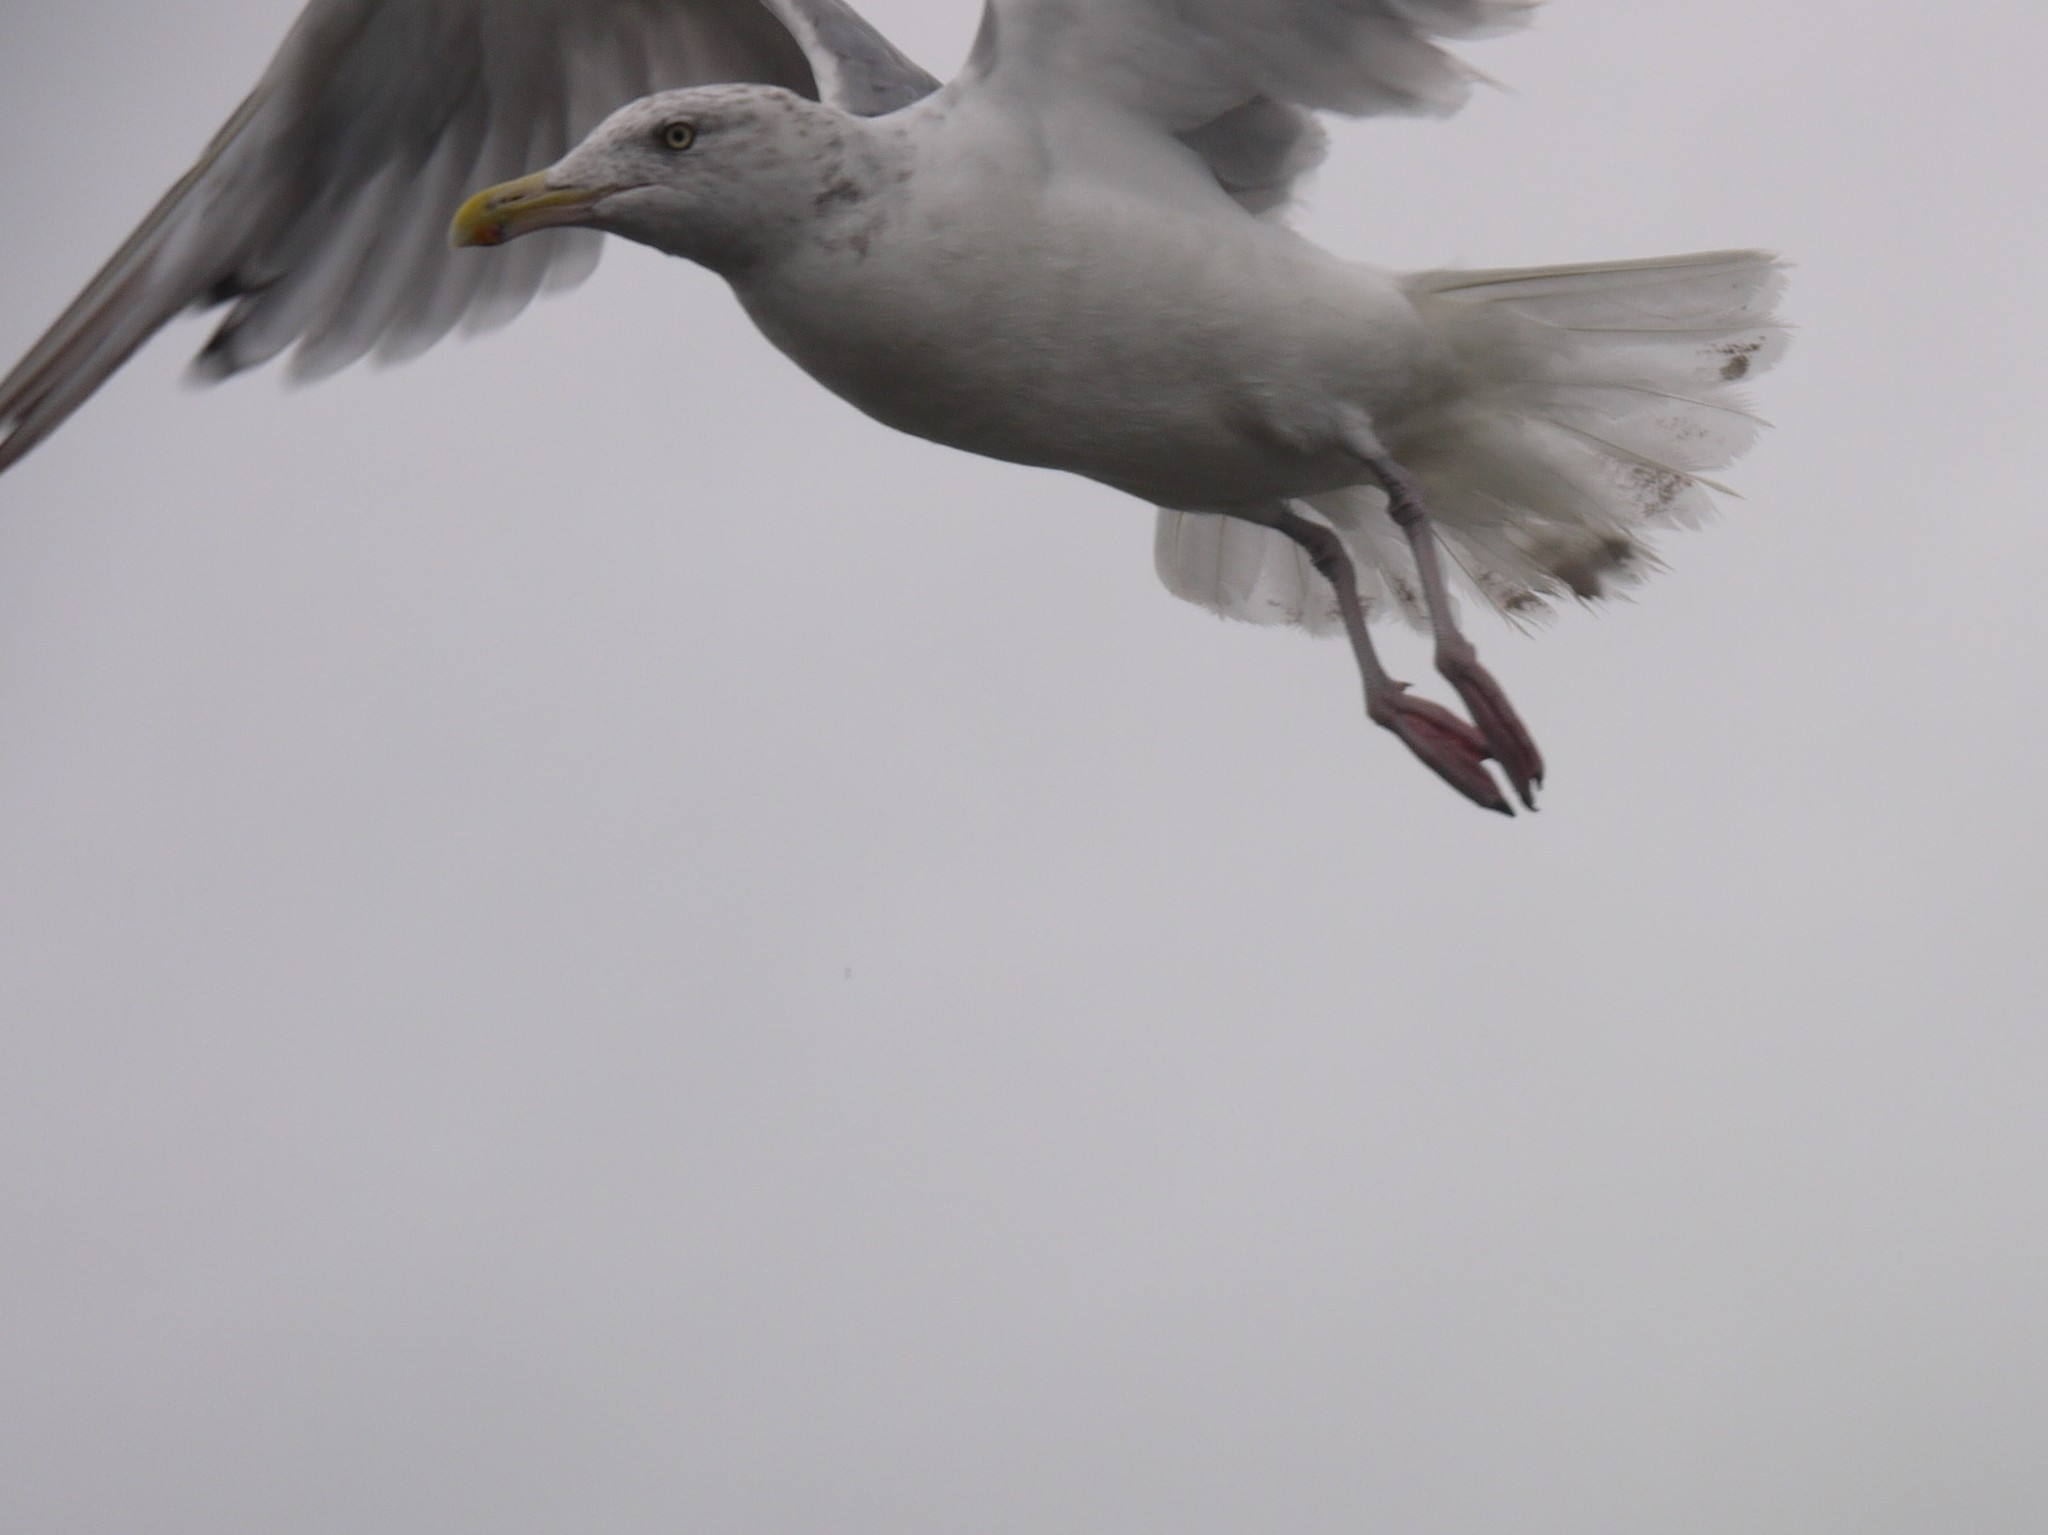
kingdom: Animalia
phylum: Chordata
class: Aves
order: Charadriiformes
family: Laridae
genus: Larus
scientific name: Larus argentatus
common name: Herring gull
